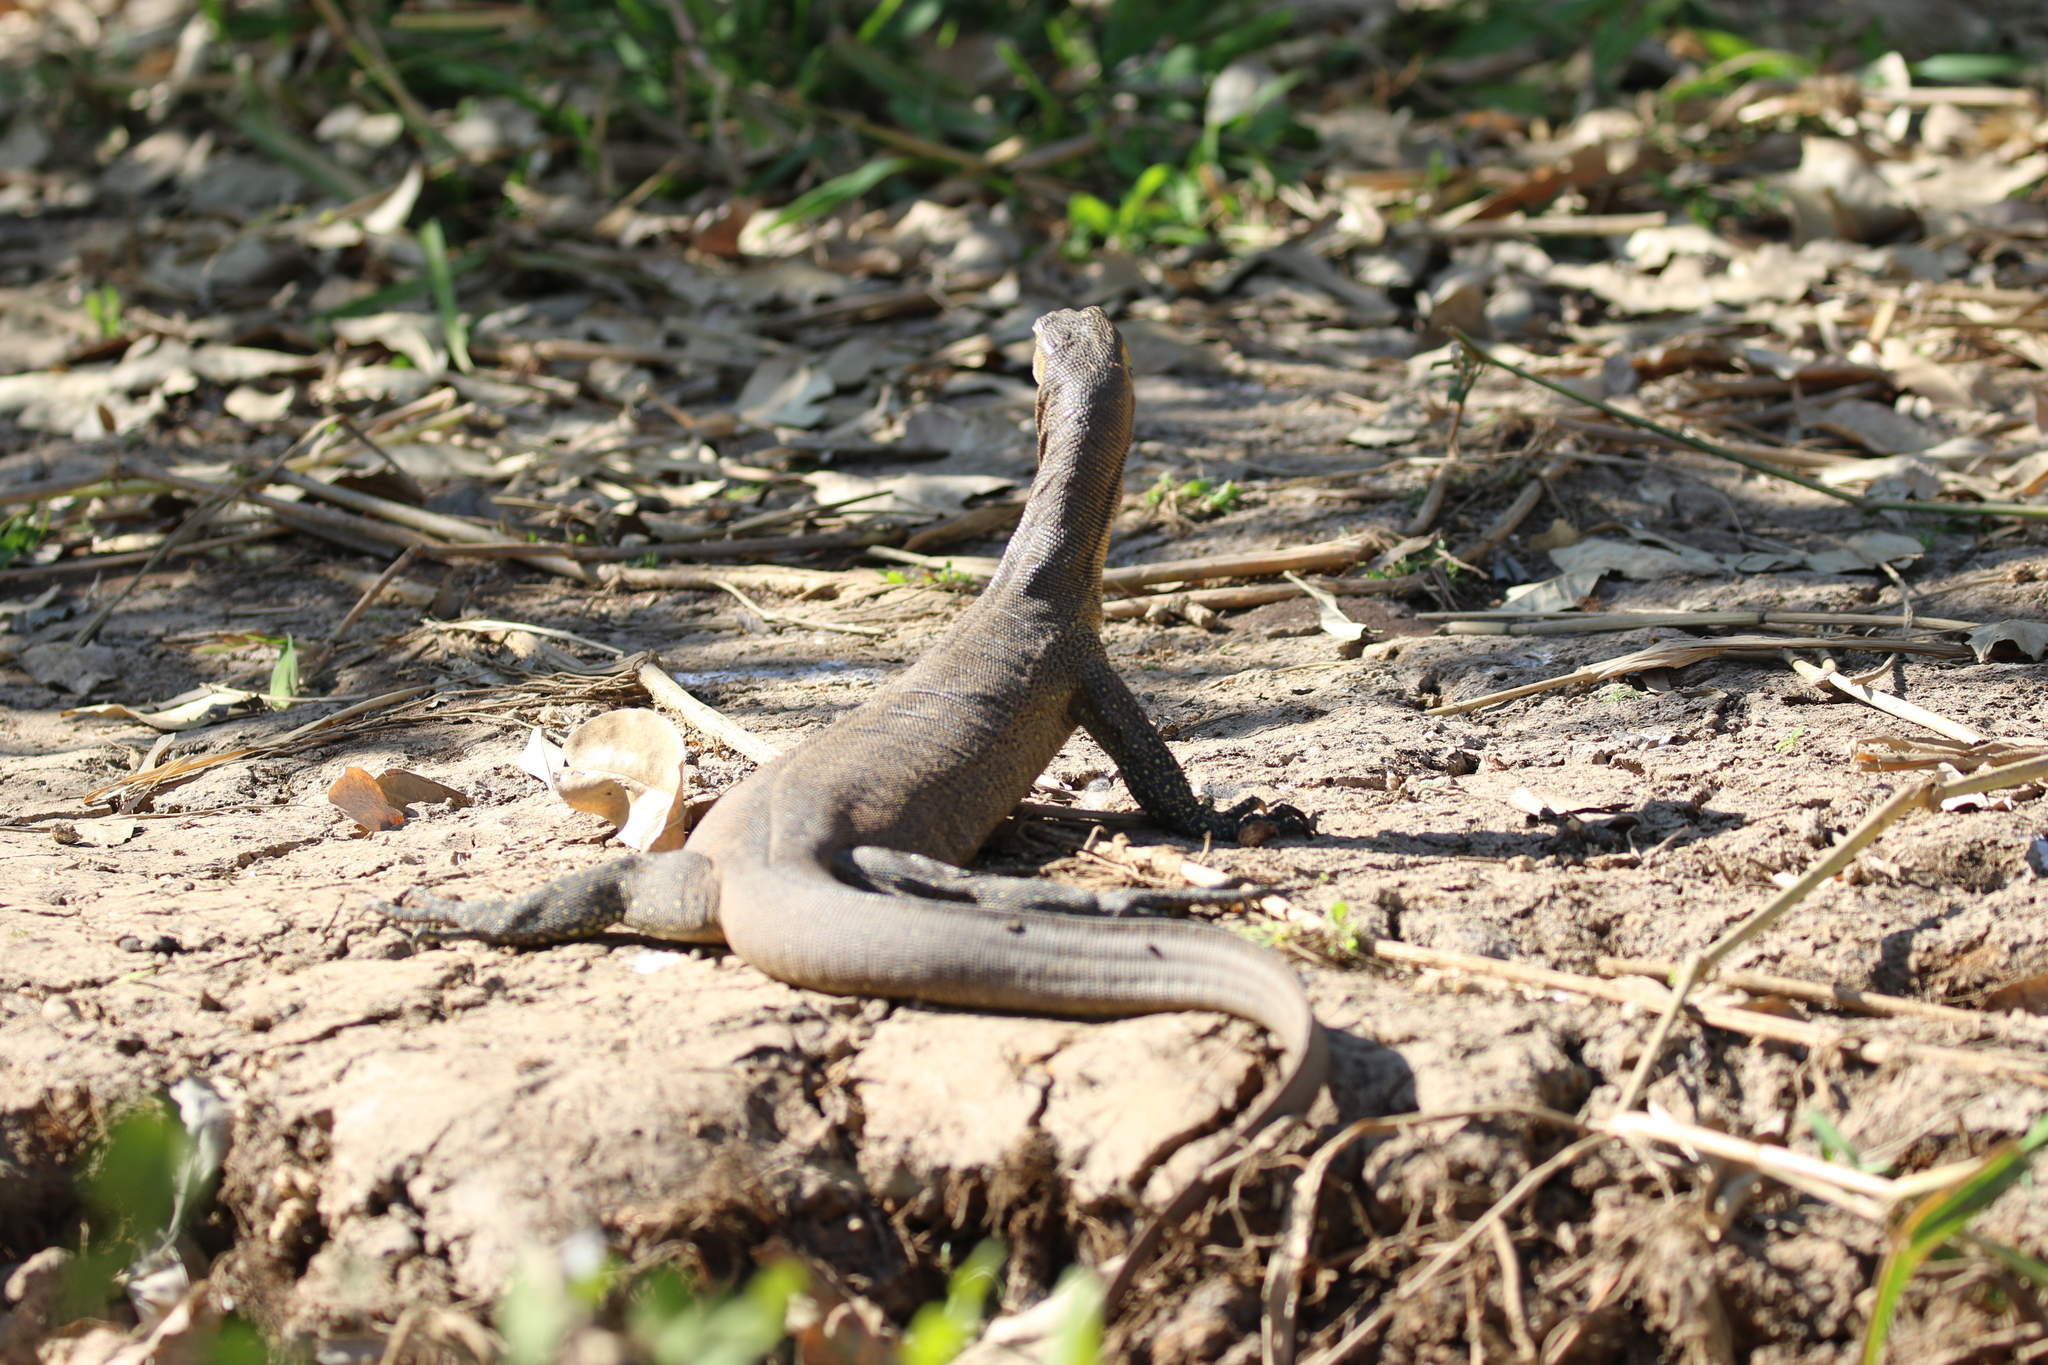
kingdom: Animalia
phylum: Chordata
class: Squamata
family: Varanidae
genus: Varanus
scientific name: Varanus mertensi
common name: Mertens's water monitor
